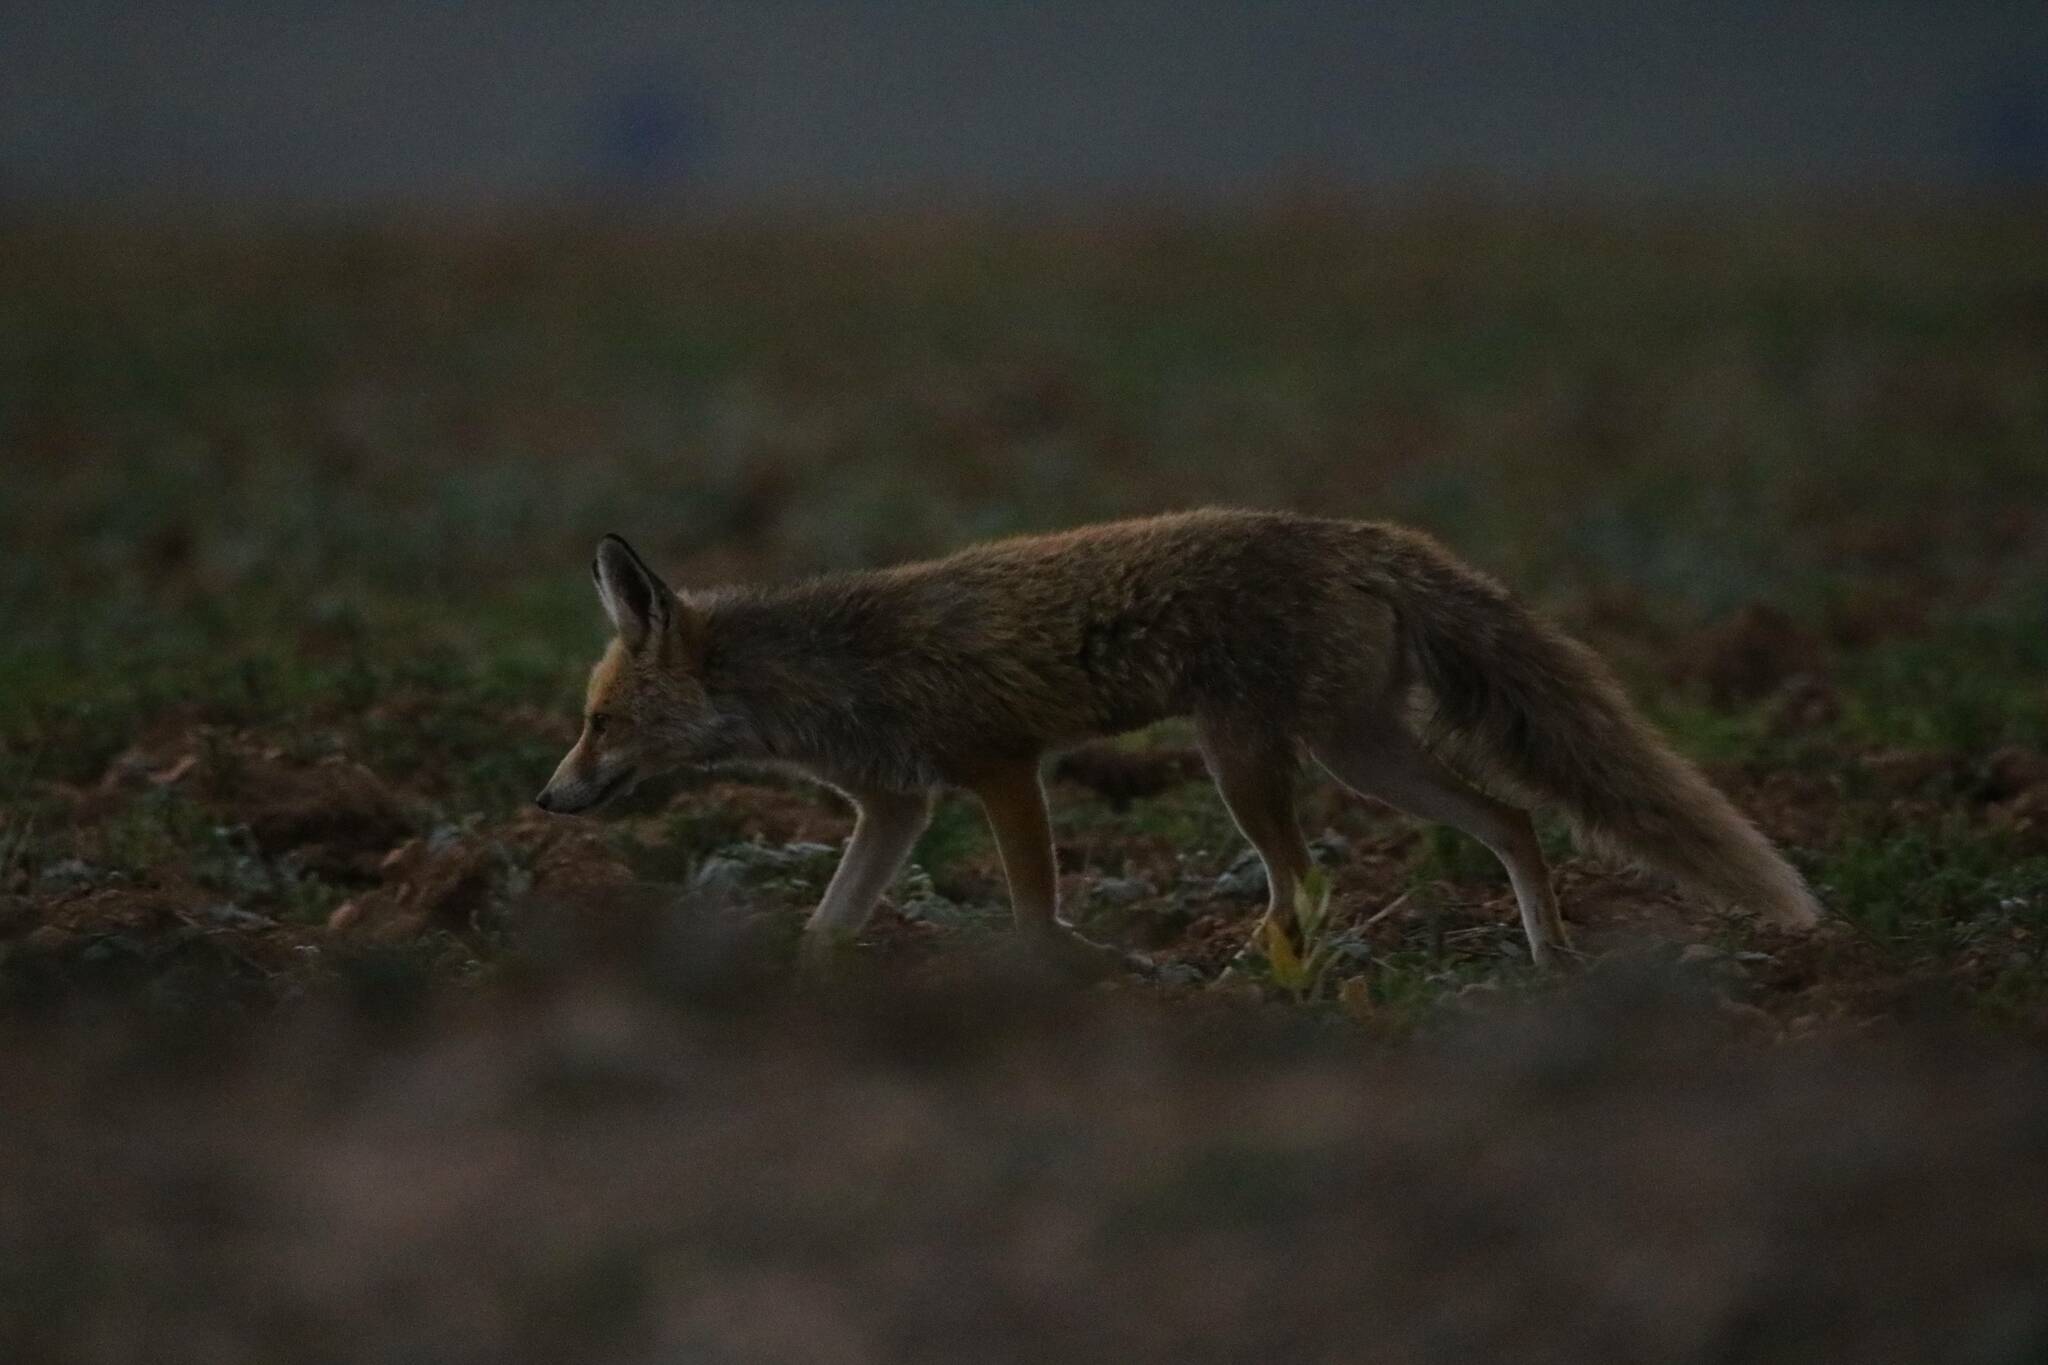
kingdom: Animalia
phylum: Chordata
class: Mammalia
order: Carnivora
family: Canidae
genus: Vulpes
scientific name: Vulpes vulpes
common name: Red fox
